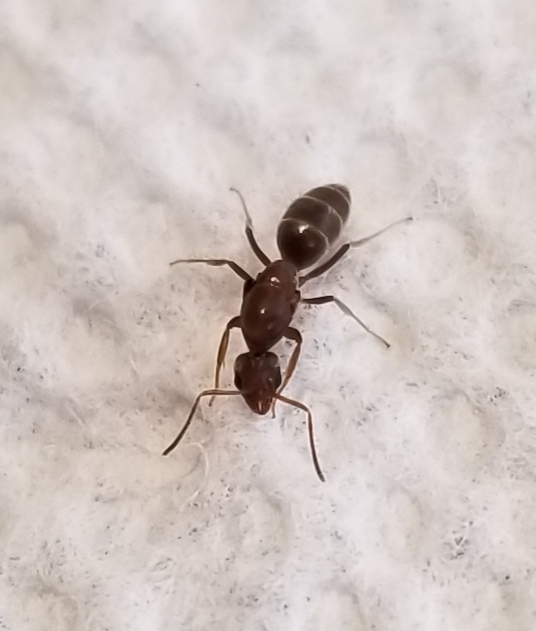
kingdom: Animalia
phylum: Arthropoda
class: Insecta
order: Hymenoptera
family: Formicidae
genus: Linepithema
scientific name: Linepithema humile
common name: Argentine ant
